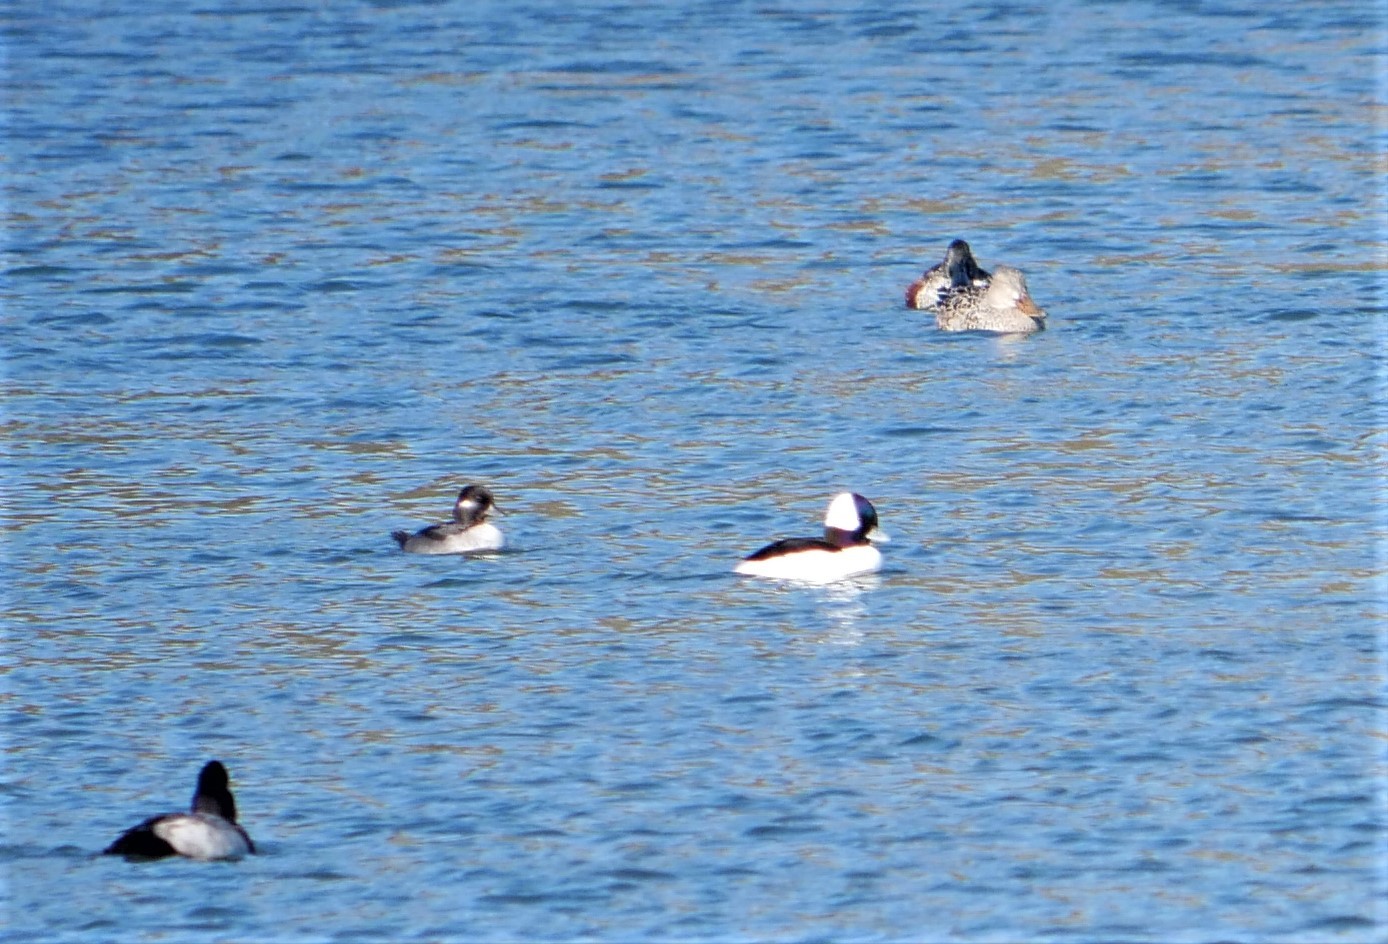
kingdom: Animalia
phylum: Chordata
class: Aves
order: Anseriformes
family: Anatidae
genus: Bucephala
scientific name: Bucephala albeola
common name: Bufflehead
